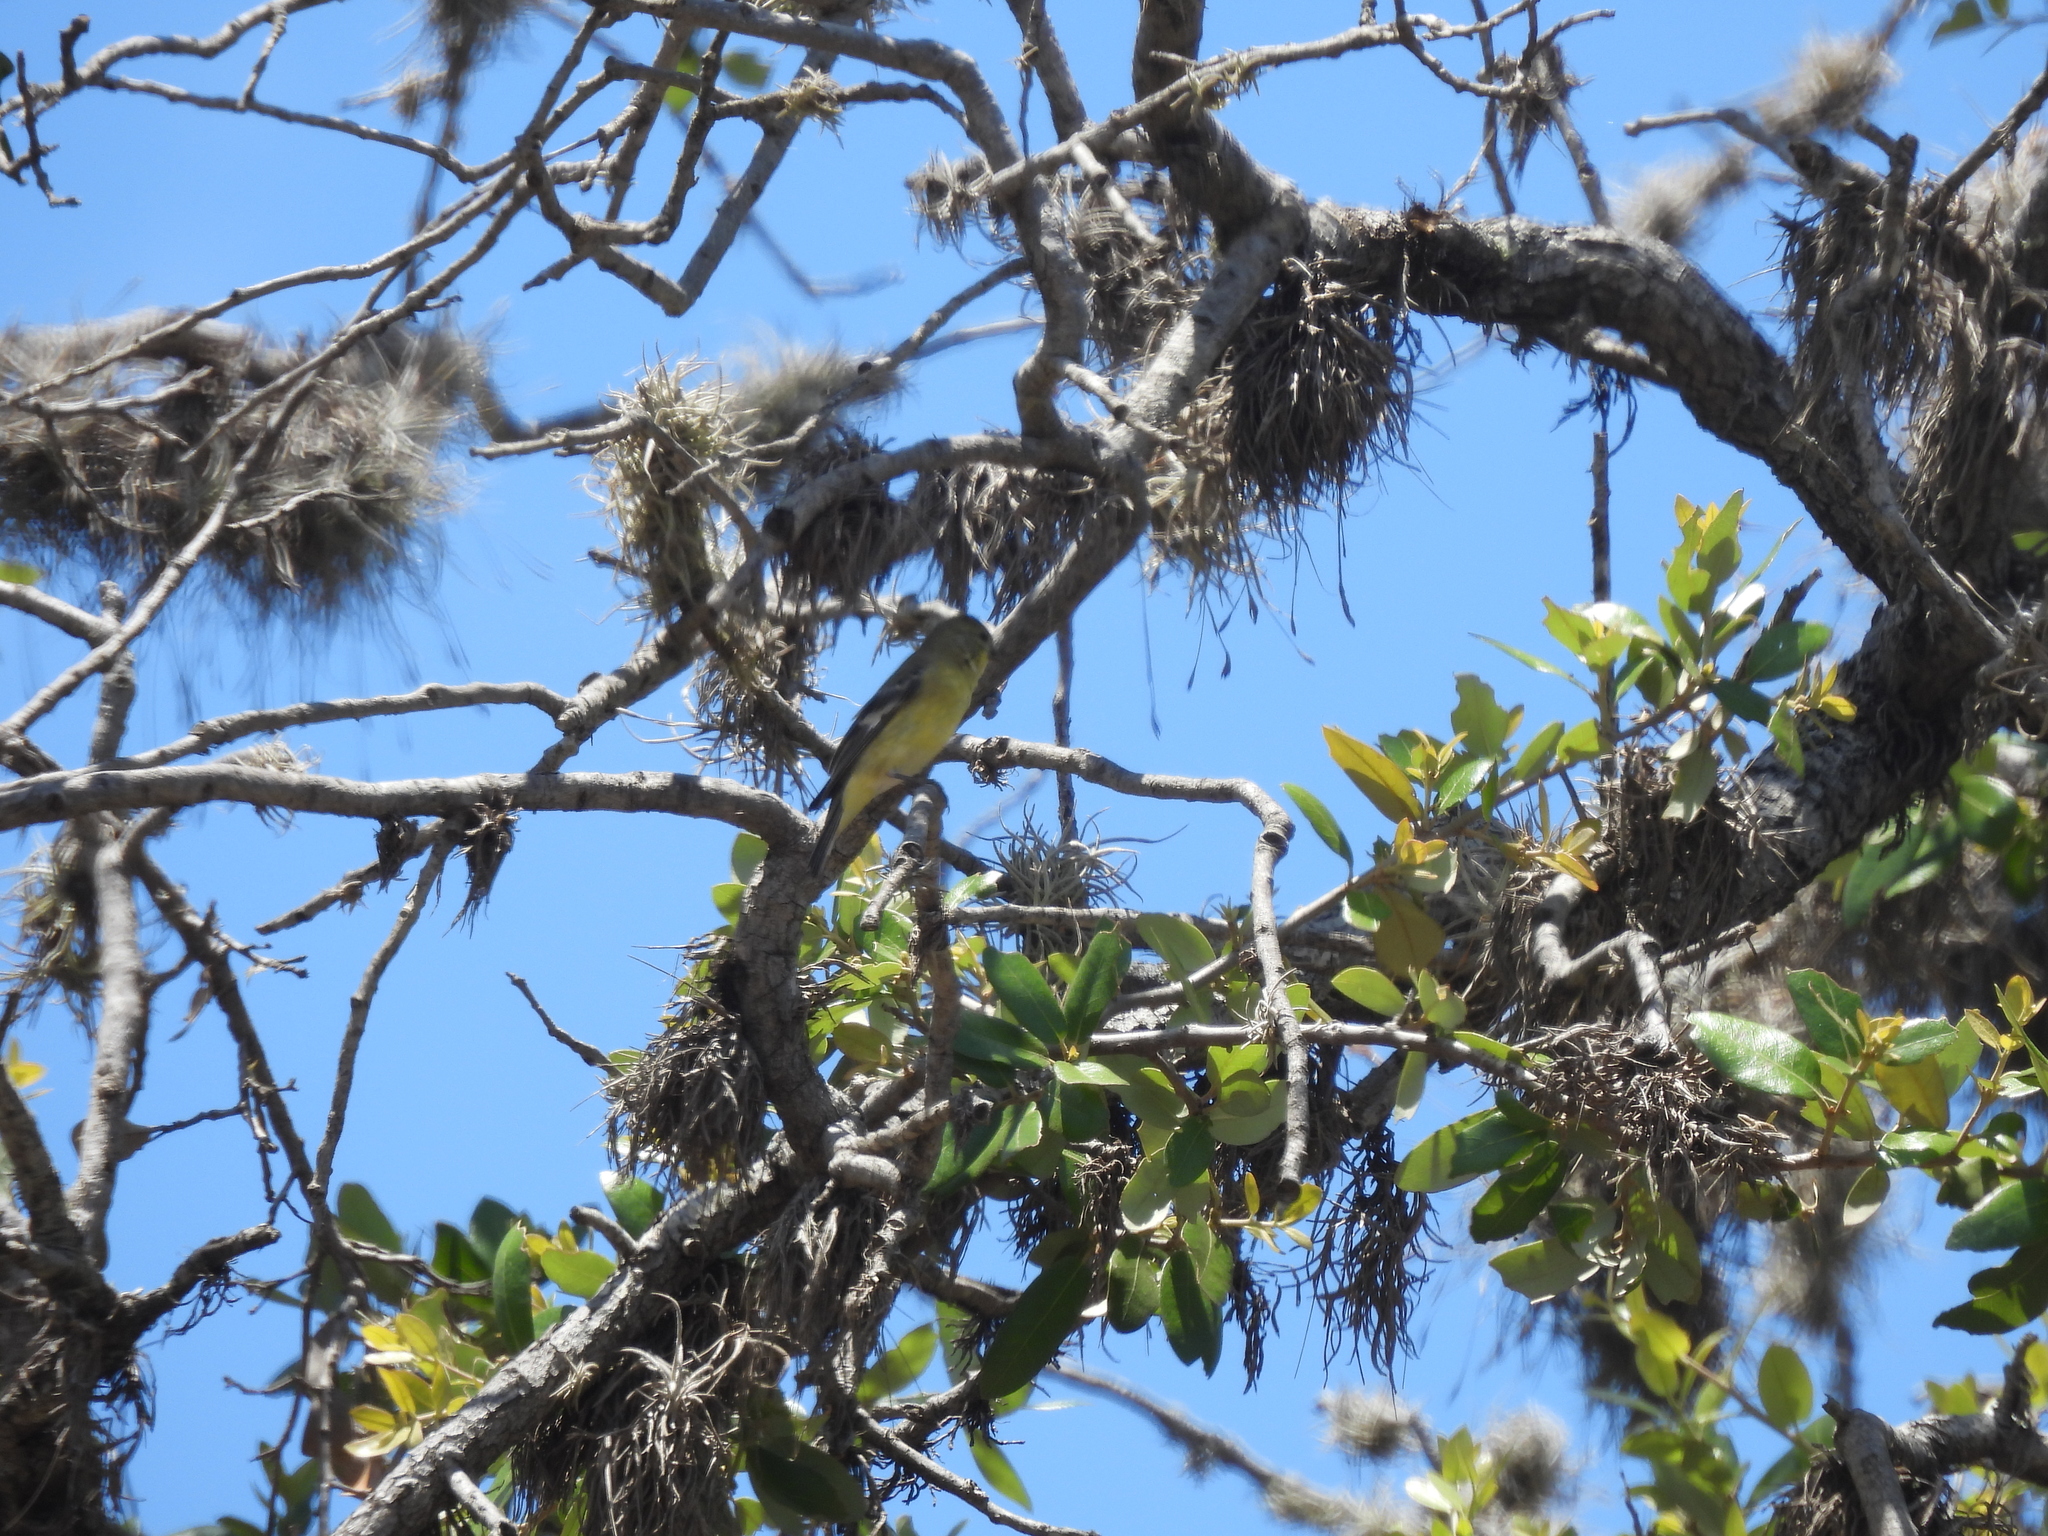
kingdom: Animalia
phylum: Chordata
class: Aves
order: Passeriformes
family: Fringillidae
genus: Spinus
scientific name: Spinus psaltria
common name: Lesser goldfinch
